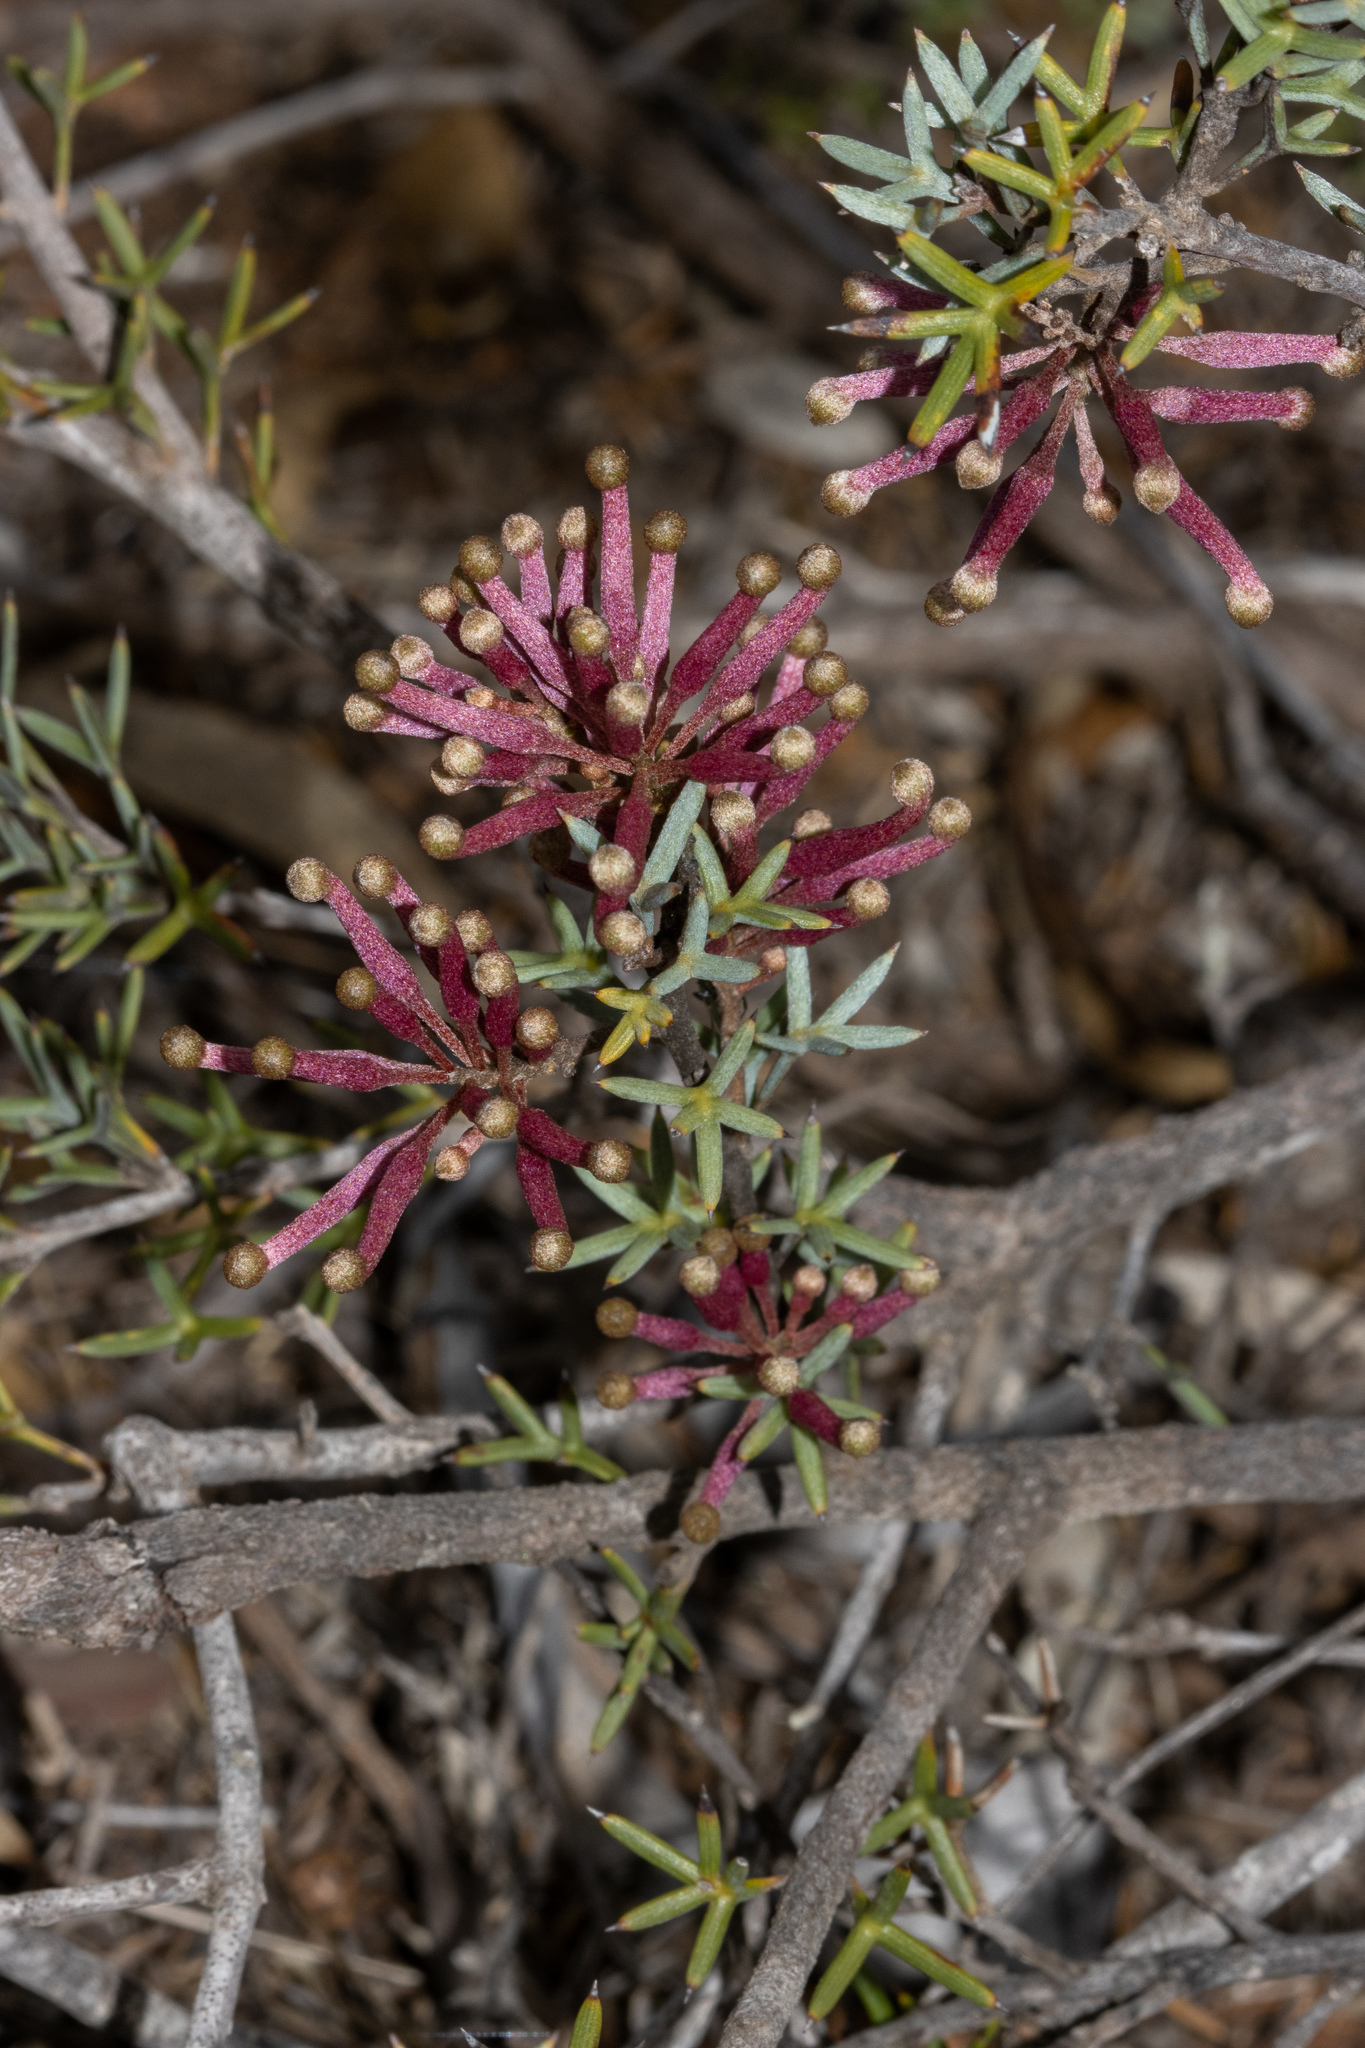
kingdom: Plantae
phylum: Tracheophyta
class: Magnoliopsida
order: Proteales
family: Proteaceae
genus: Grevillea
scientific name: Grevillea huegelii
